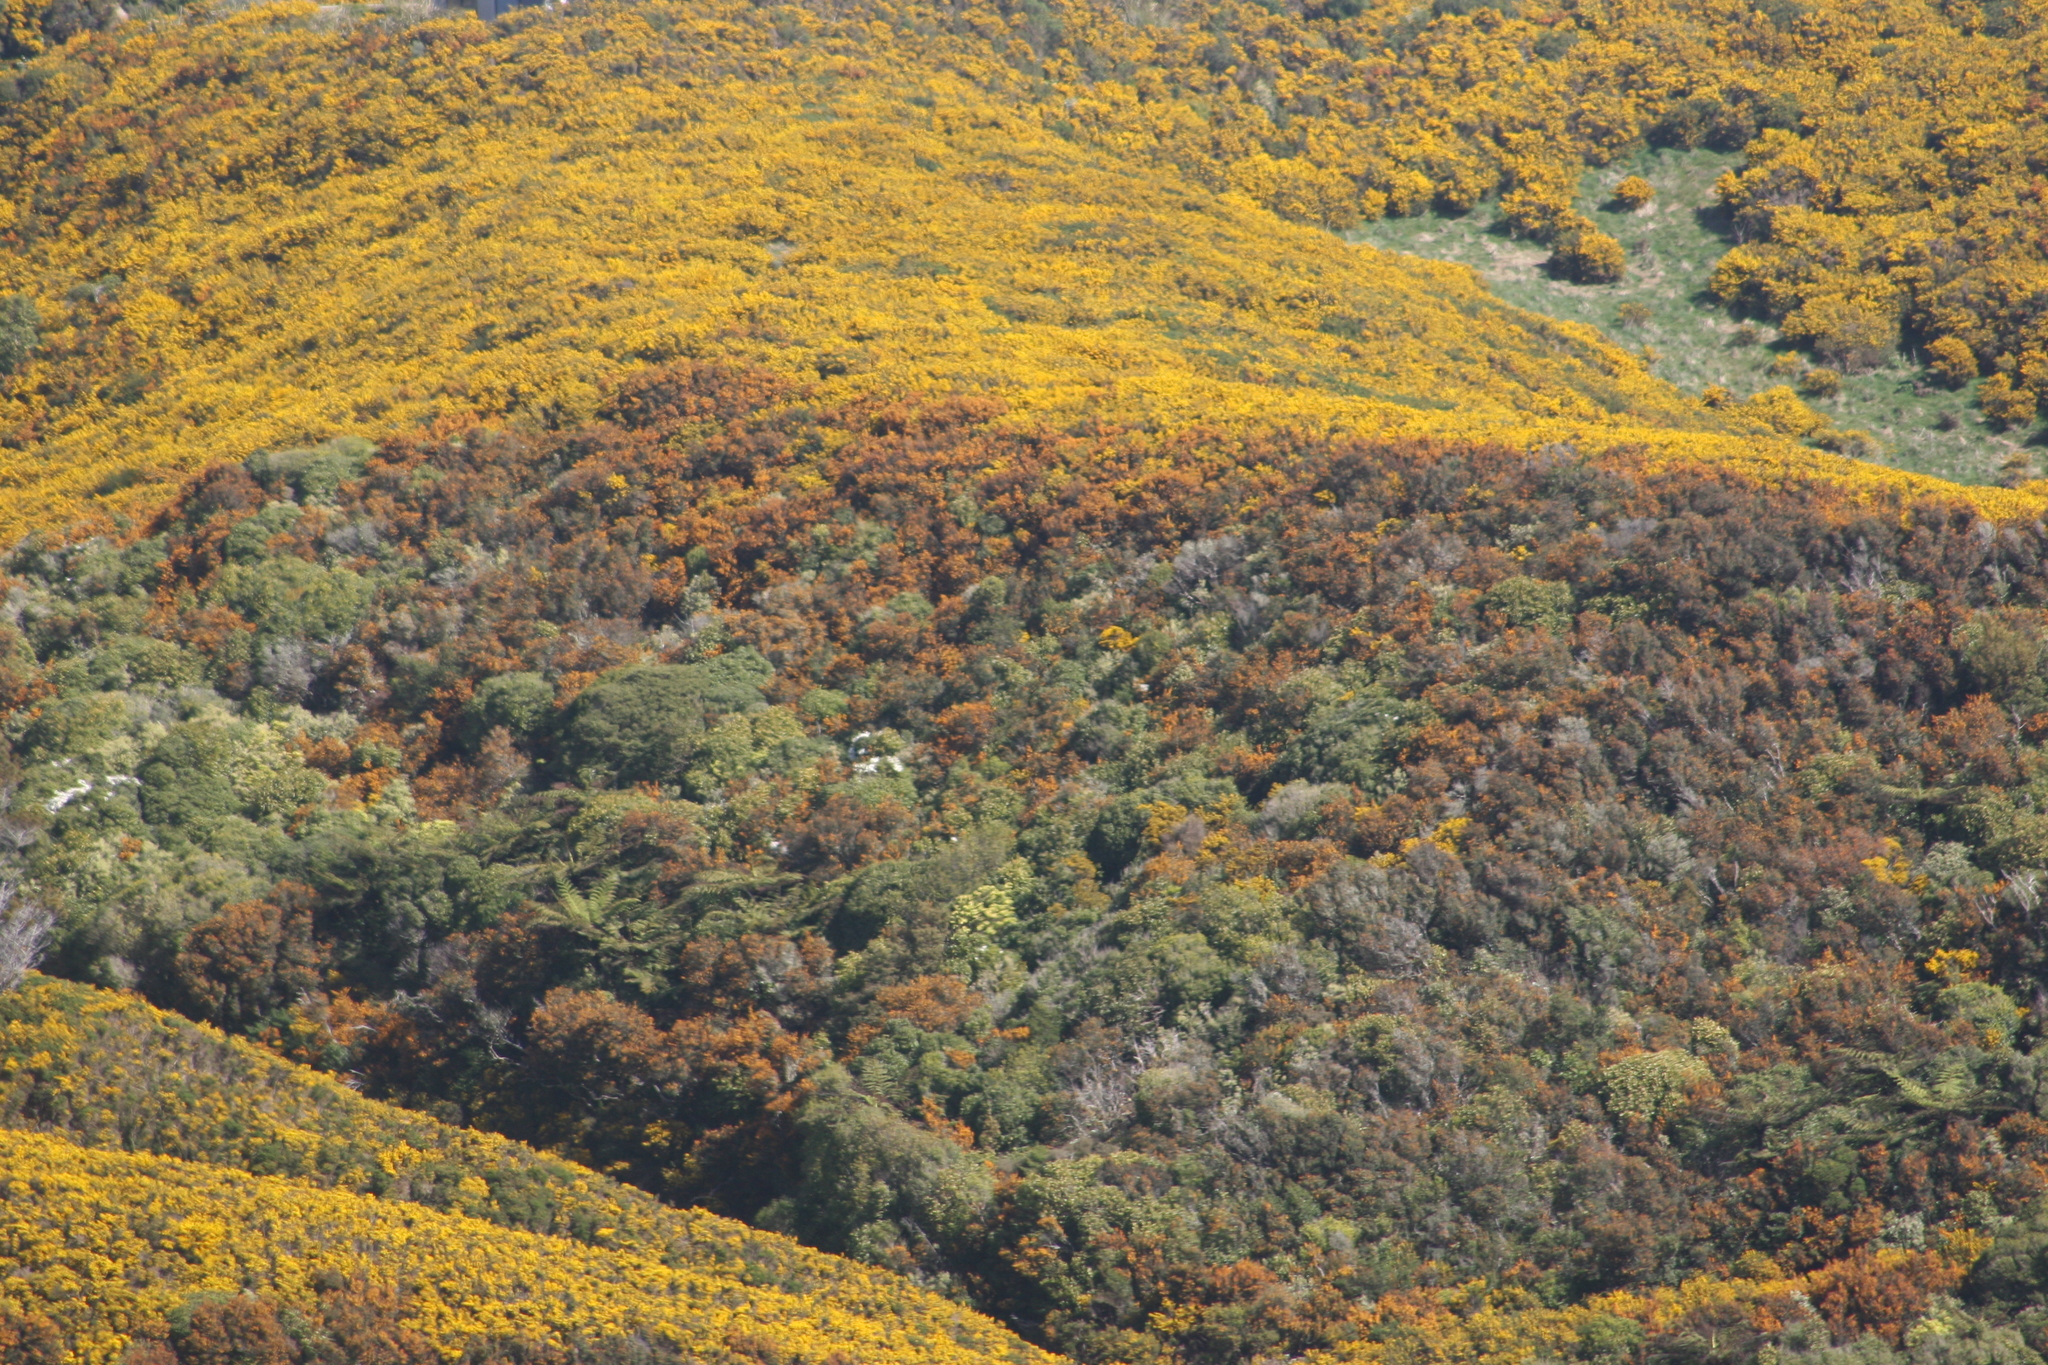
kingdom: Plantae
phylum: Tracheophyta
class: Magnoliopsida
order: Ranunculales
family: Berberidaceae
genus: Berberis
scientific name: Berberis darwinii
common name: Darwin's barberry
